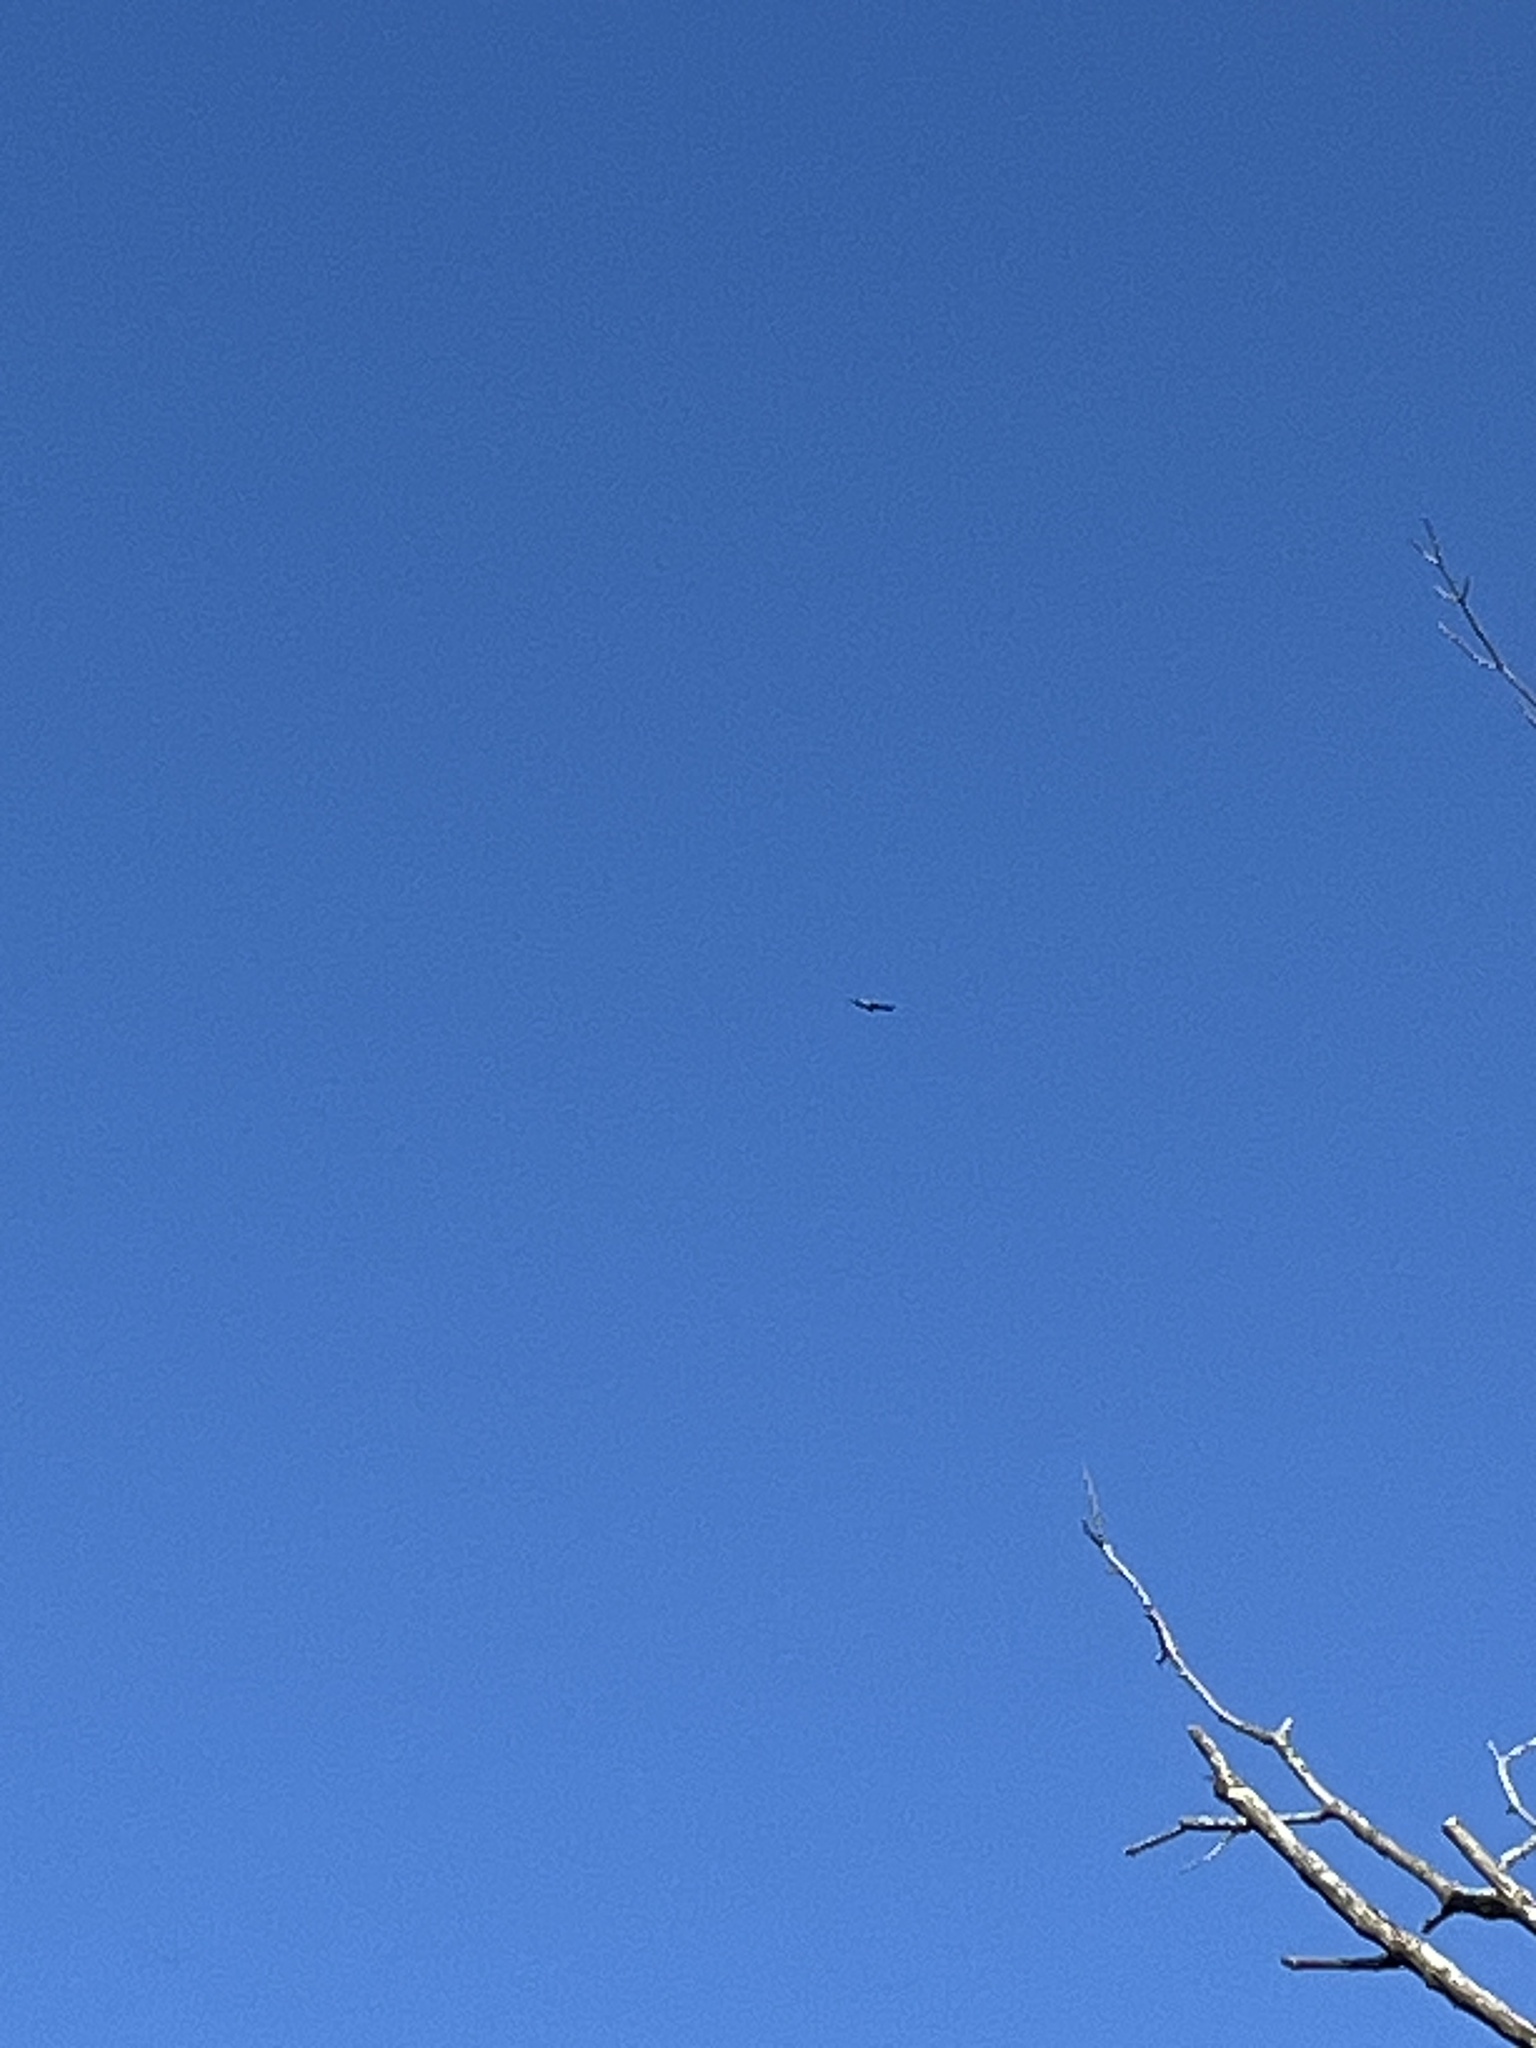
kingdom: Animalia
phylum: Chordata
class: Aves
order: Accipitriformes
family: Accipitridae
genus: Haliaeetus
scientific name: Haliaeetus leucocephalus
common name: Bald eagle
